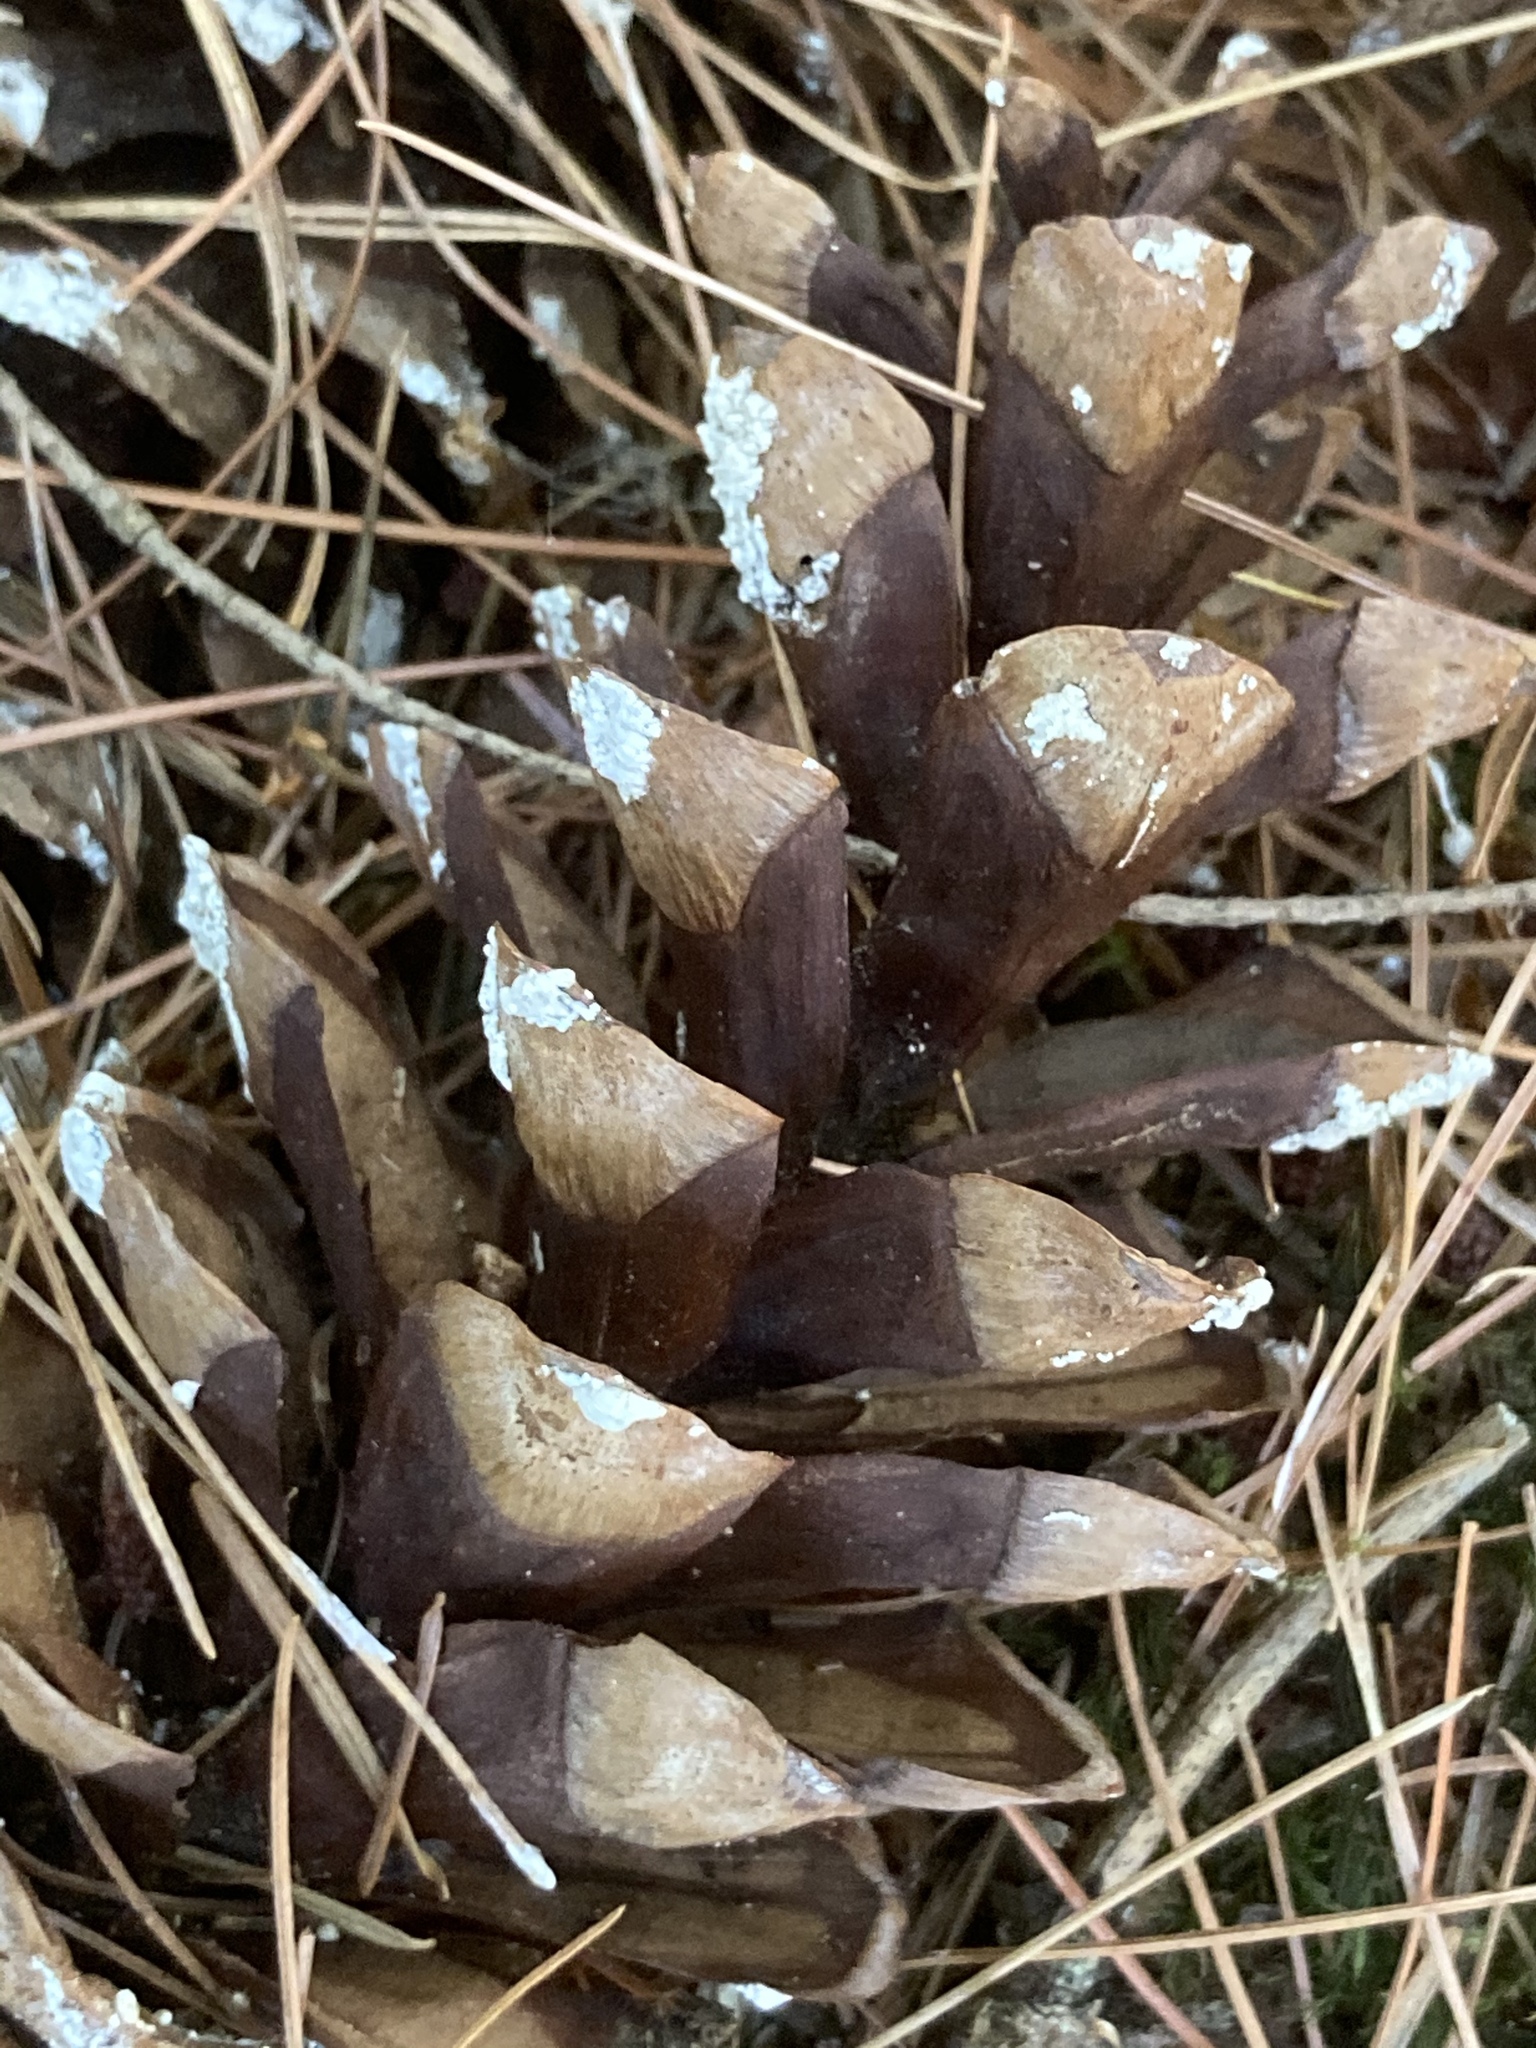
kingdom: Plantae
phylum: Tracheophyta
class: Pinopsida
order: Pinales
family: Pinaceae
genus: Pinus
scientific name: Pinus strobus
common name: Weymouth pine
